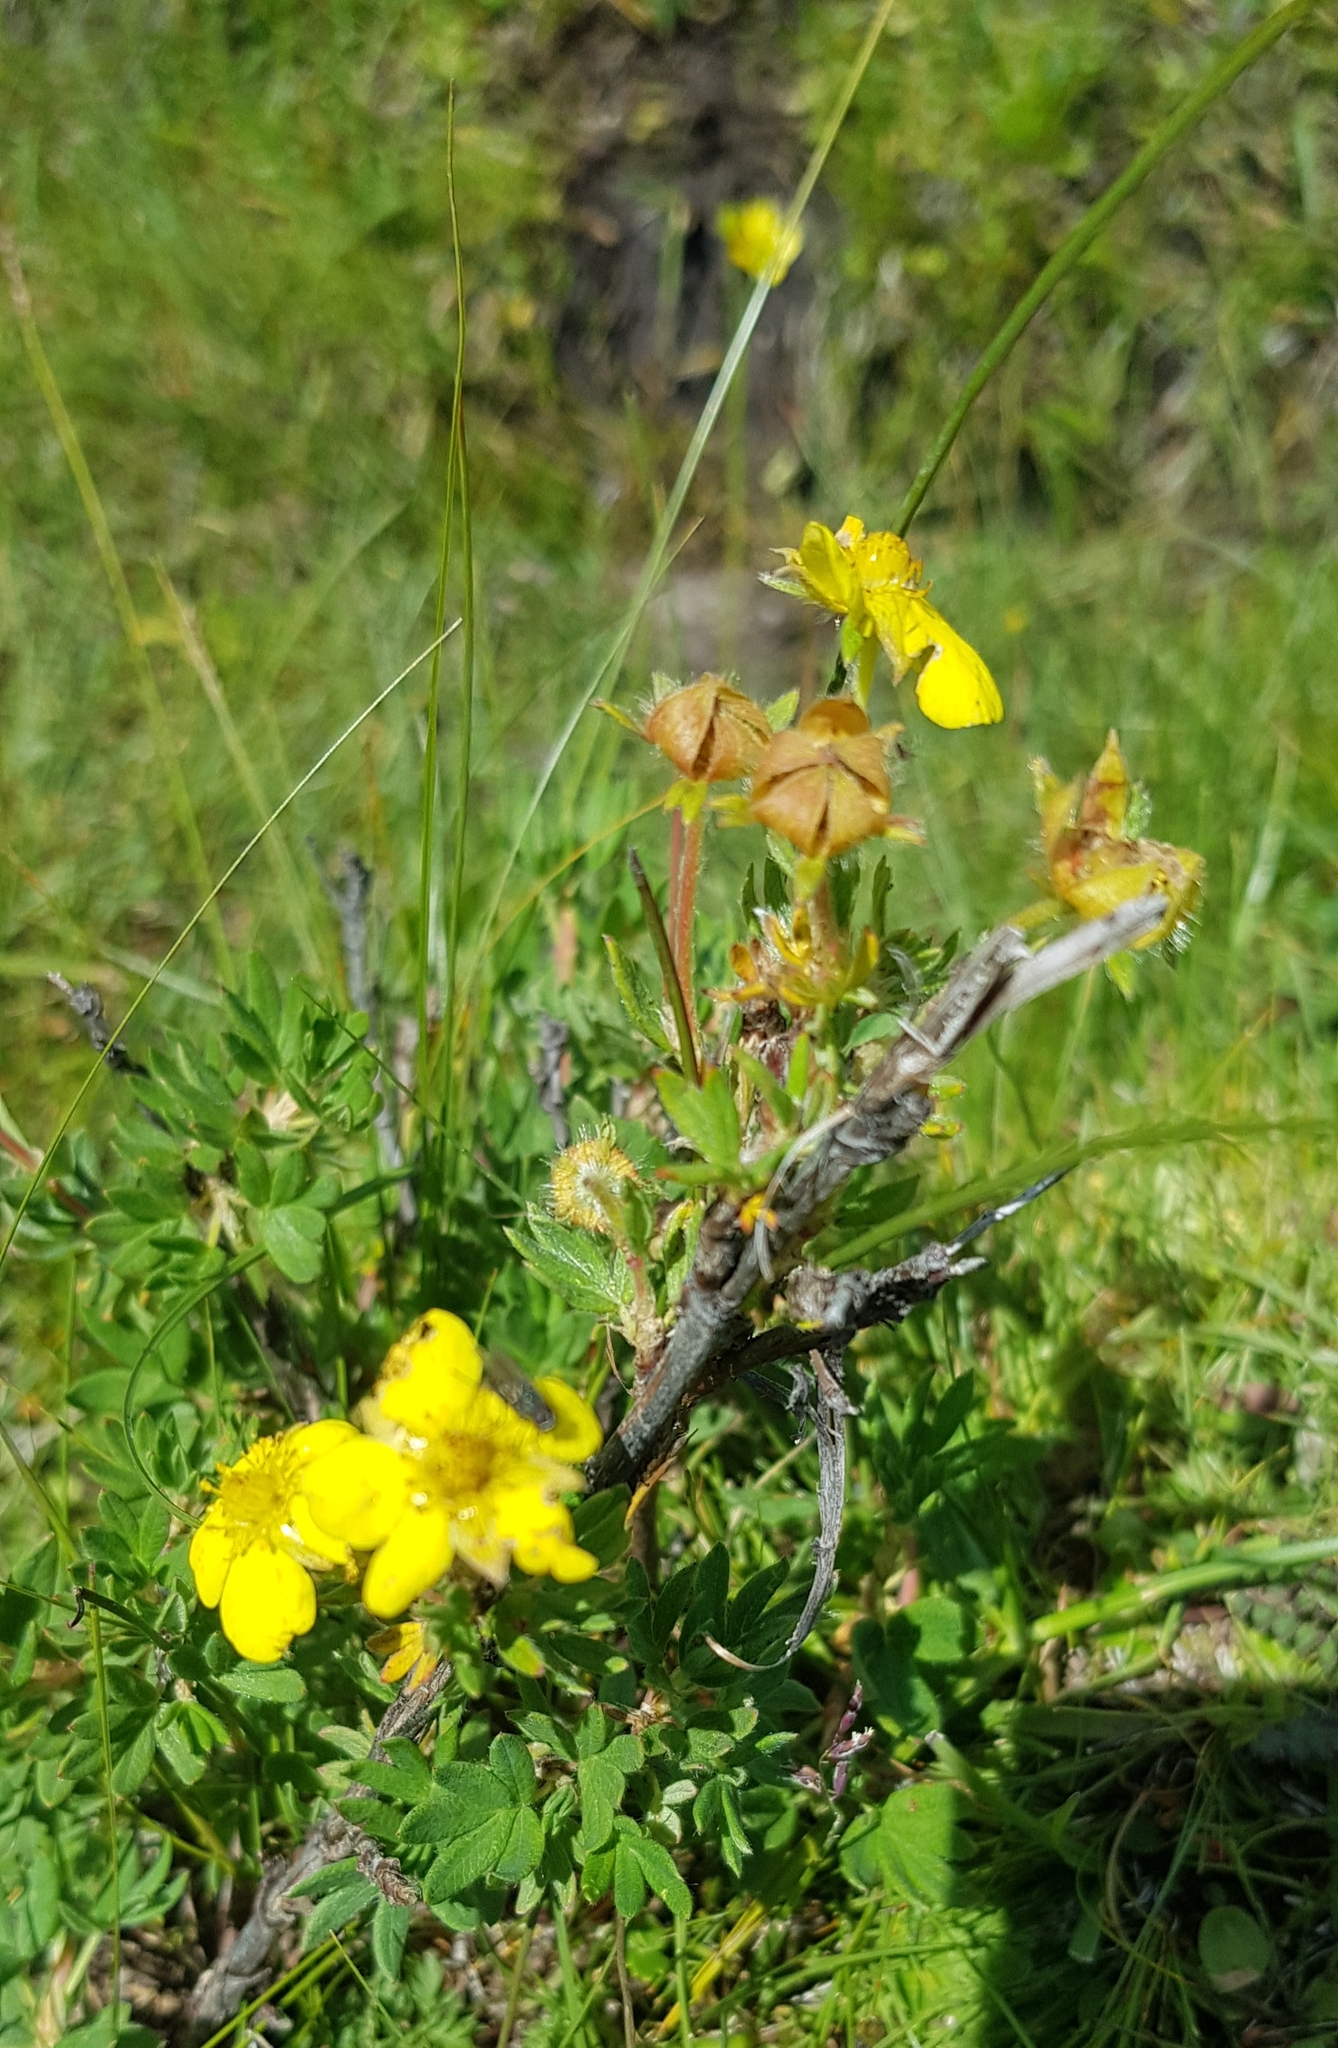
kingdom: Plantae
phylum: Tracheophyta
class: Magnoliopsida
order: Rosales
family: Rosaceae
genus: Dasiphora
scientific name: Dasiphora fruticosa
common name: Shrubby cinquefoil
